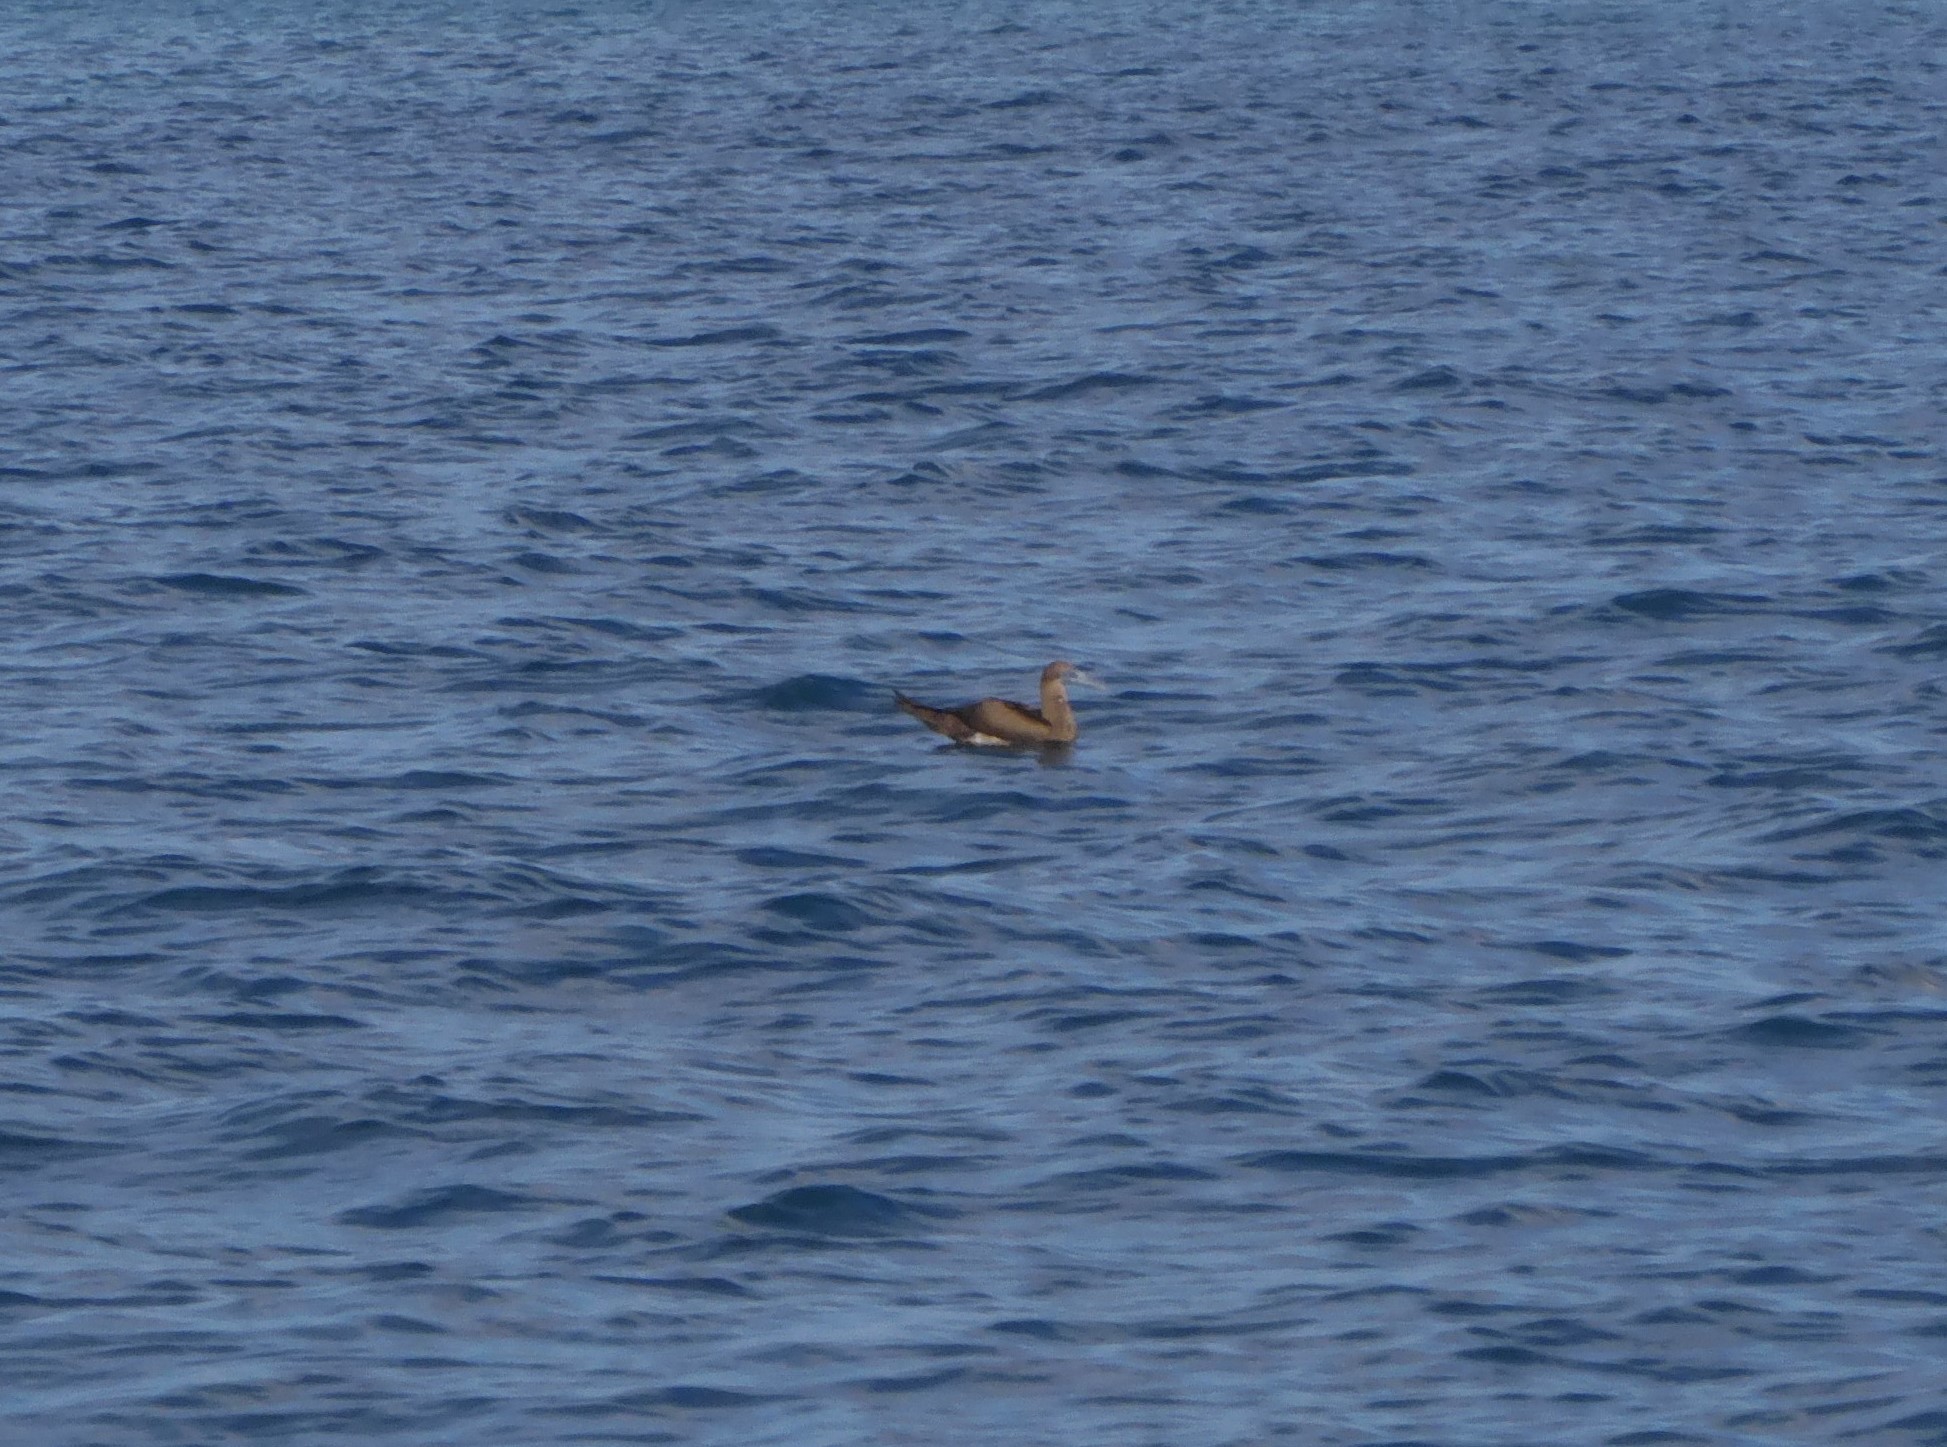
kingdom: Animalia
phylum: Chordata
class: Aves
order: Suliformes
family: Sulidae
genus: Sula
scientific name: Sula leucogaster
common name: Brown booby
